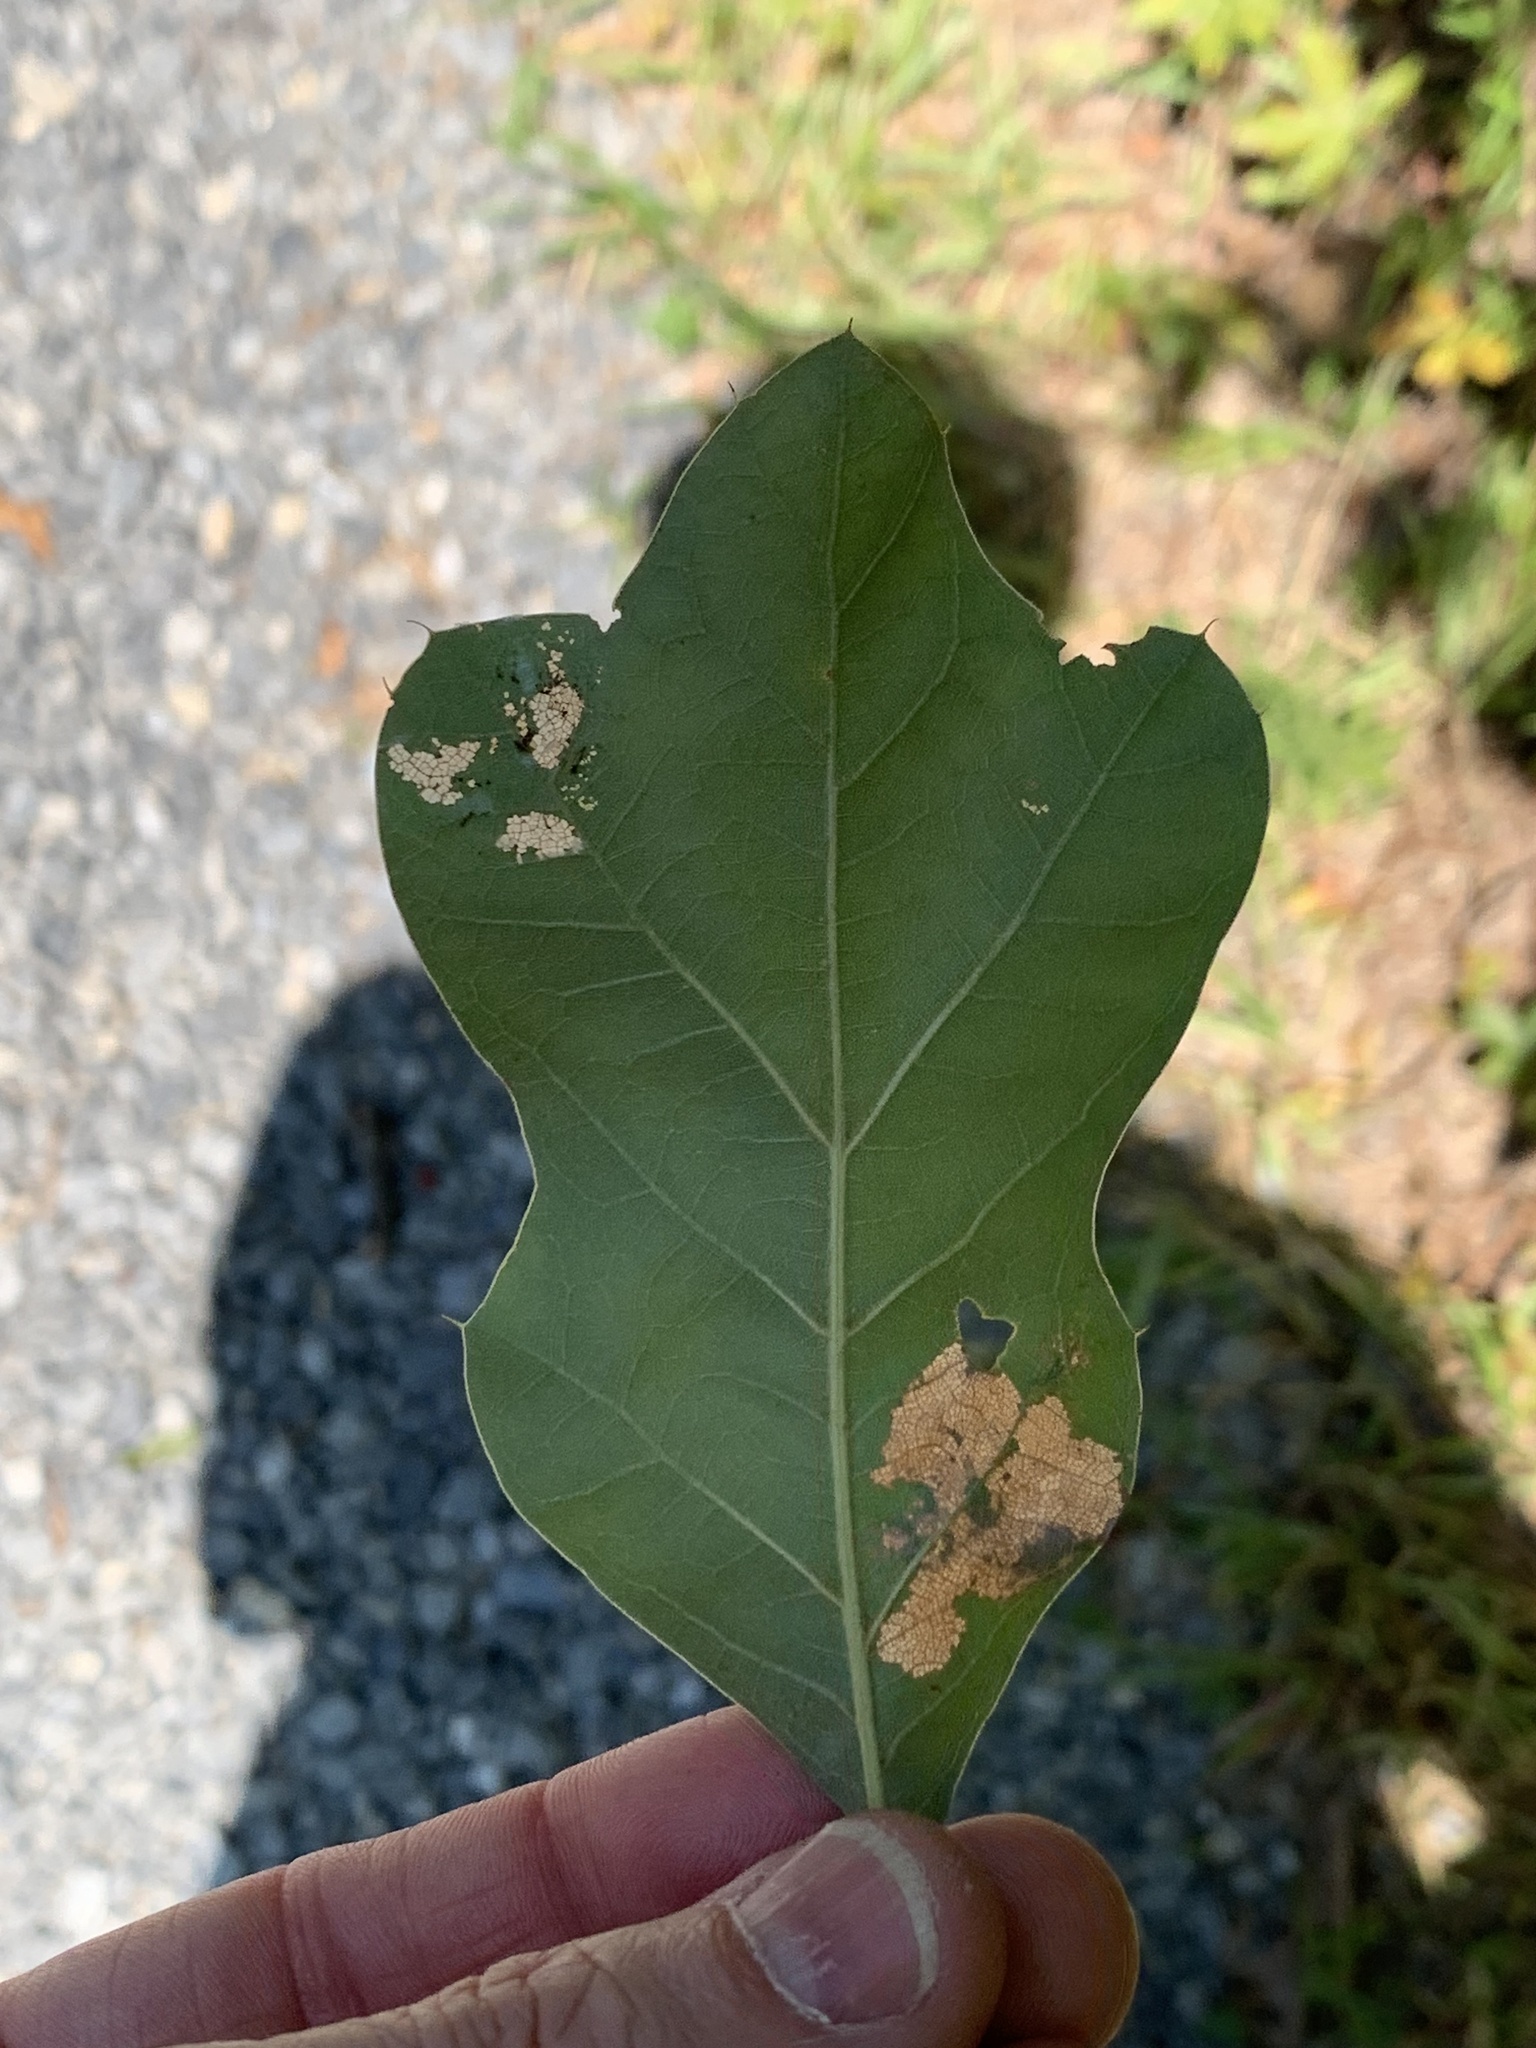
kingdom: Plantae
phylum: Tracheophyta
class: Magnoliopsida
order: Fagales
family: Fagaceae
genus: Quercus
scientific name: Quercus ilicifolia
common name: Bear oak
